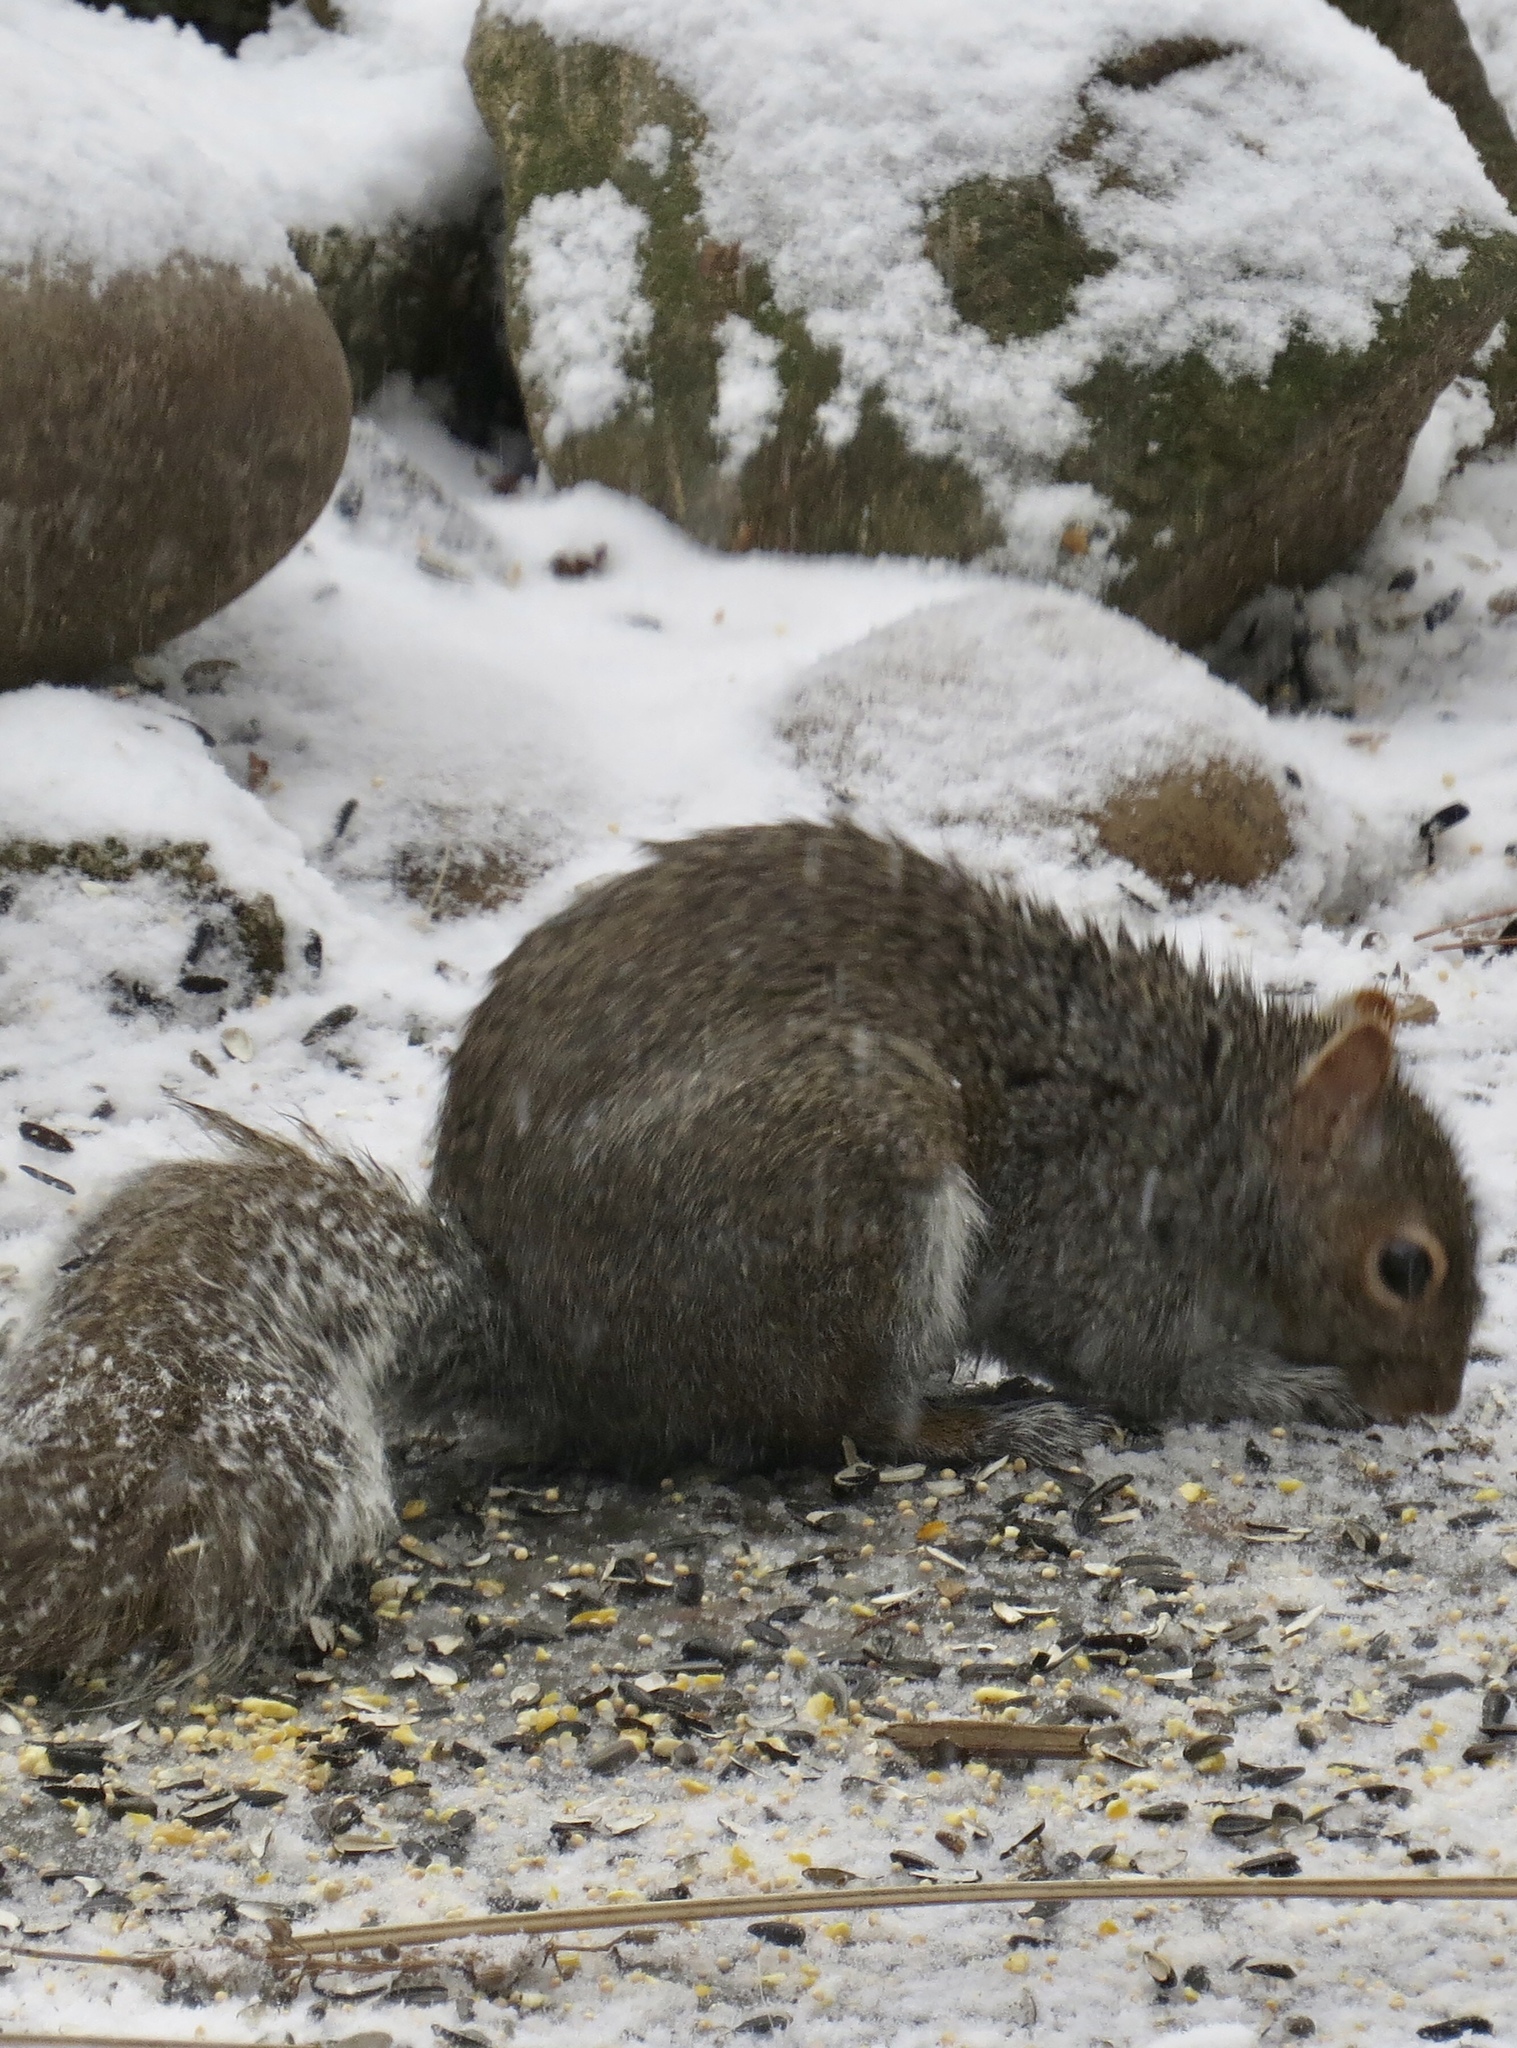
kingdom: Animalia
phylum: Chordata
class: Mammalia
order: Rodentia
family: Sciuridae
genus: Sciurus
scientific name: Sciurus carolinensis
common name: Eastern gray squirrel
